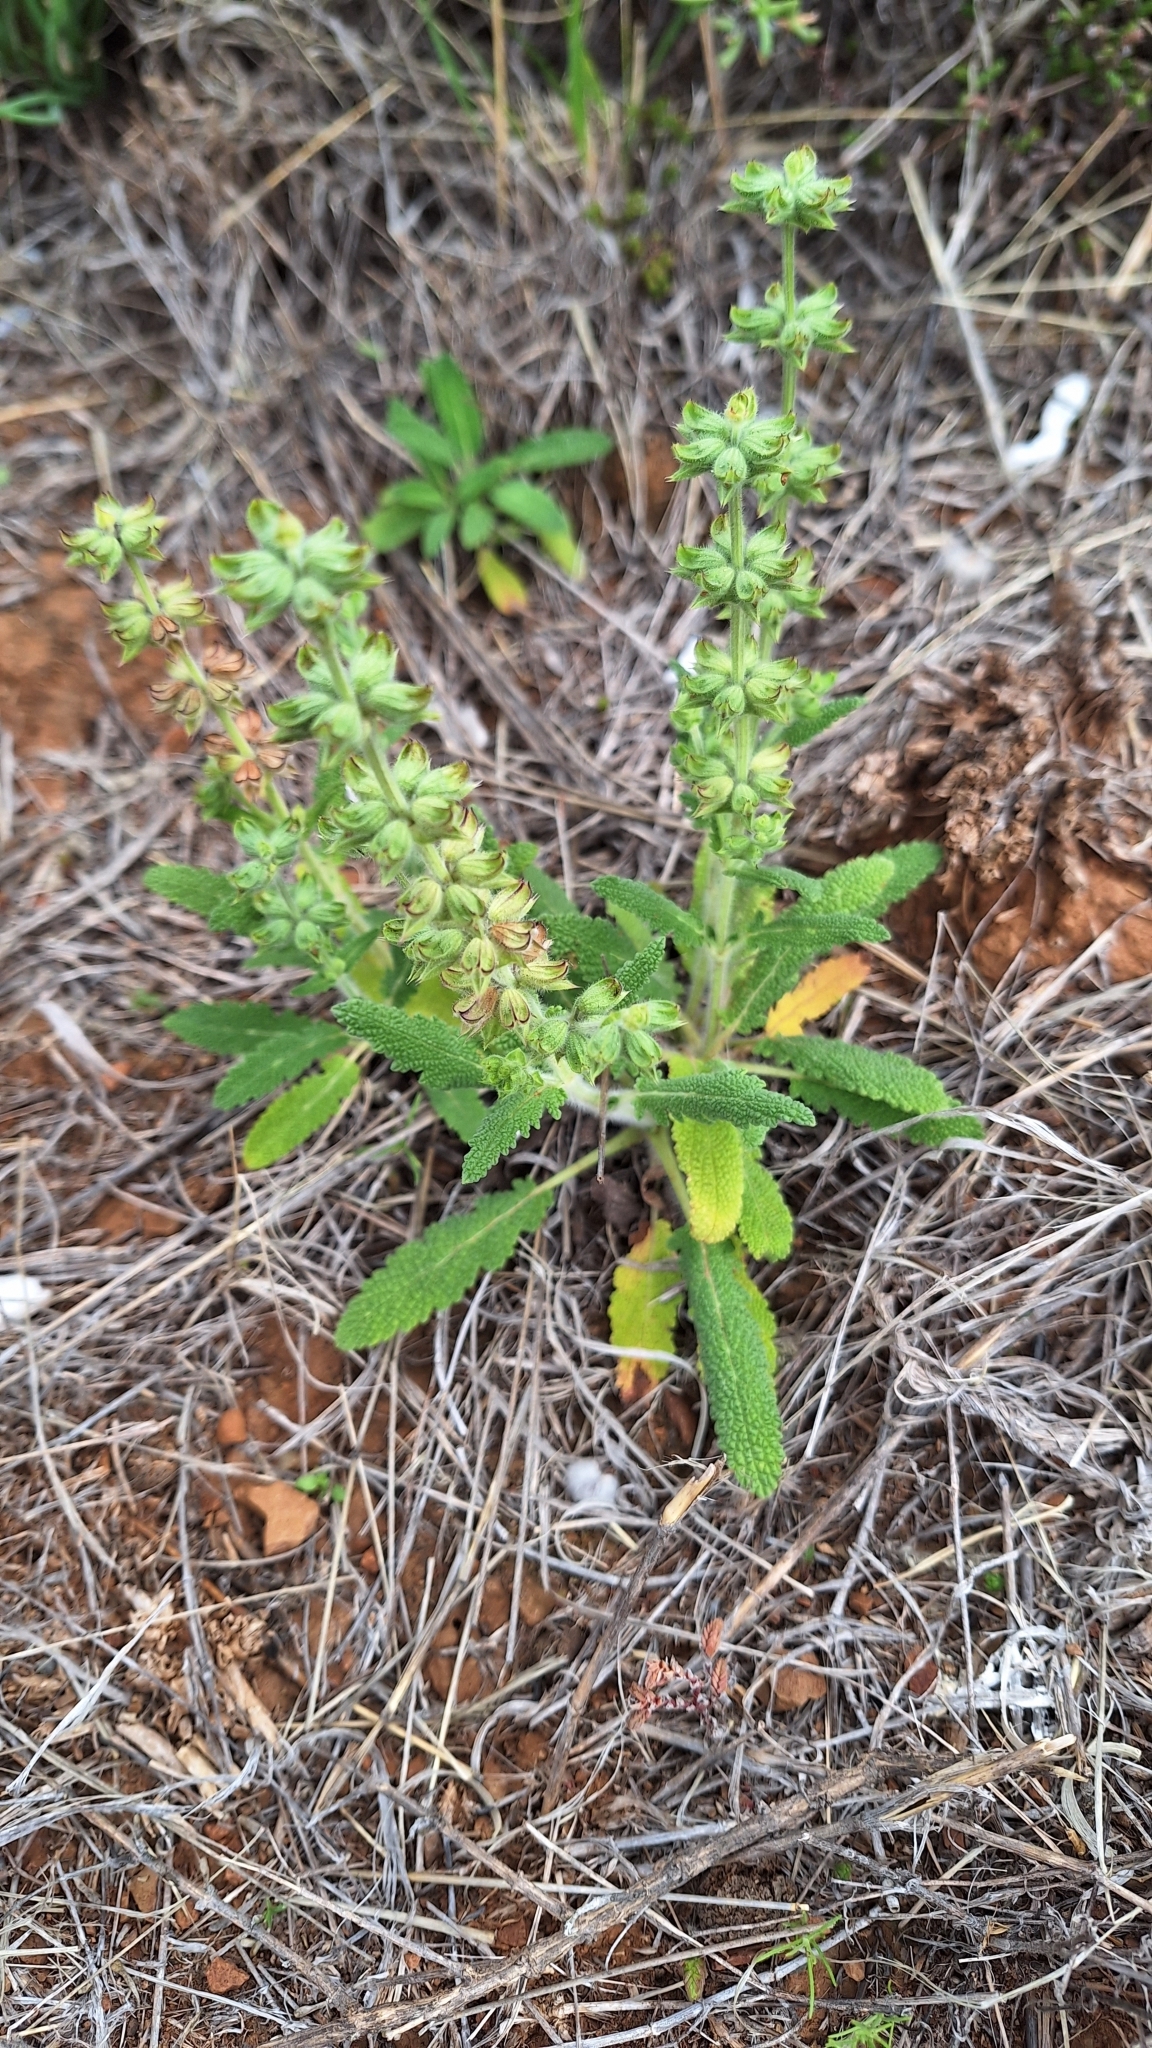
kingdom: Plantae
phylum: Tracheophyta
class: Magnoliopsida
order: Lamiales
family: Lamiaceae
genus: Salvia
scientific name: Salvia verbenaca
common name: Wild clary
